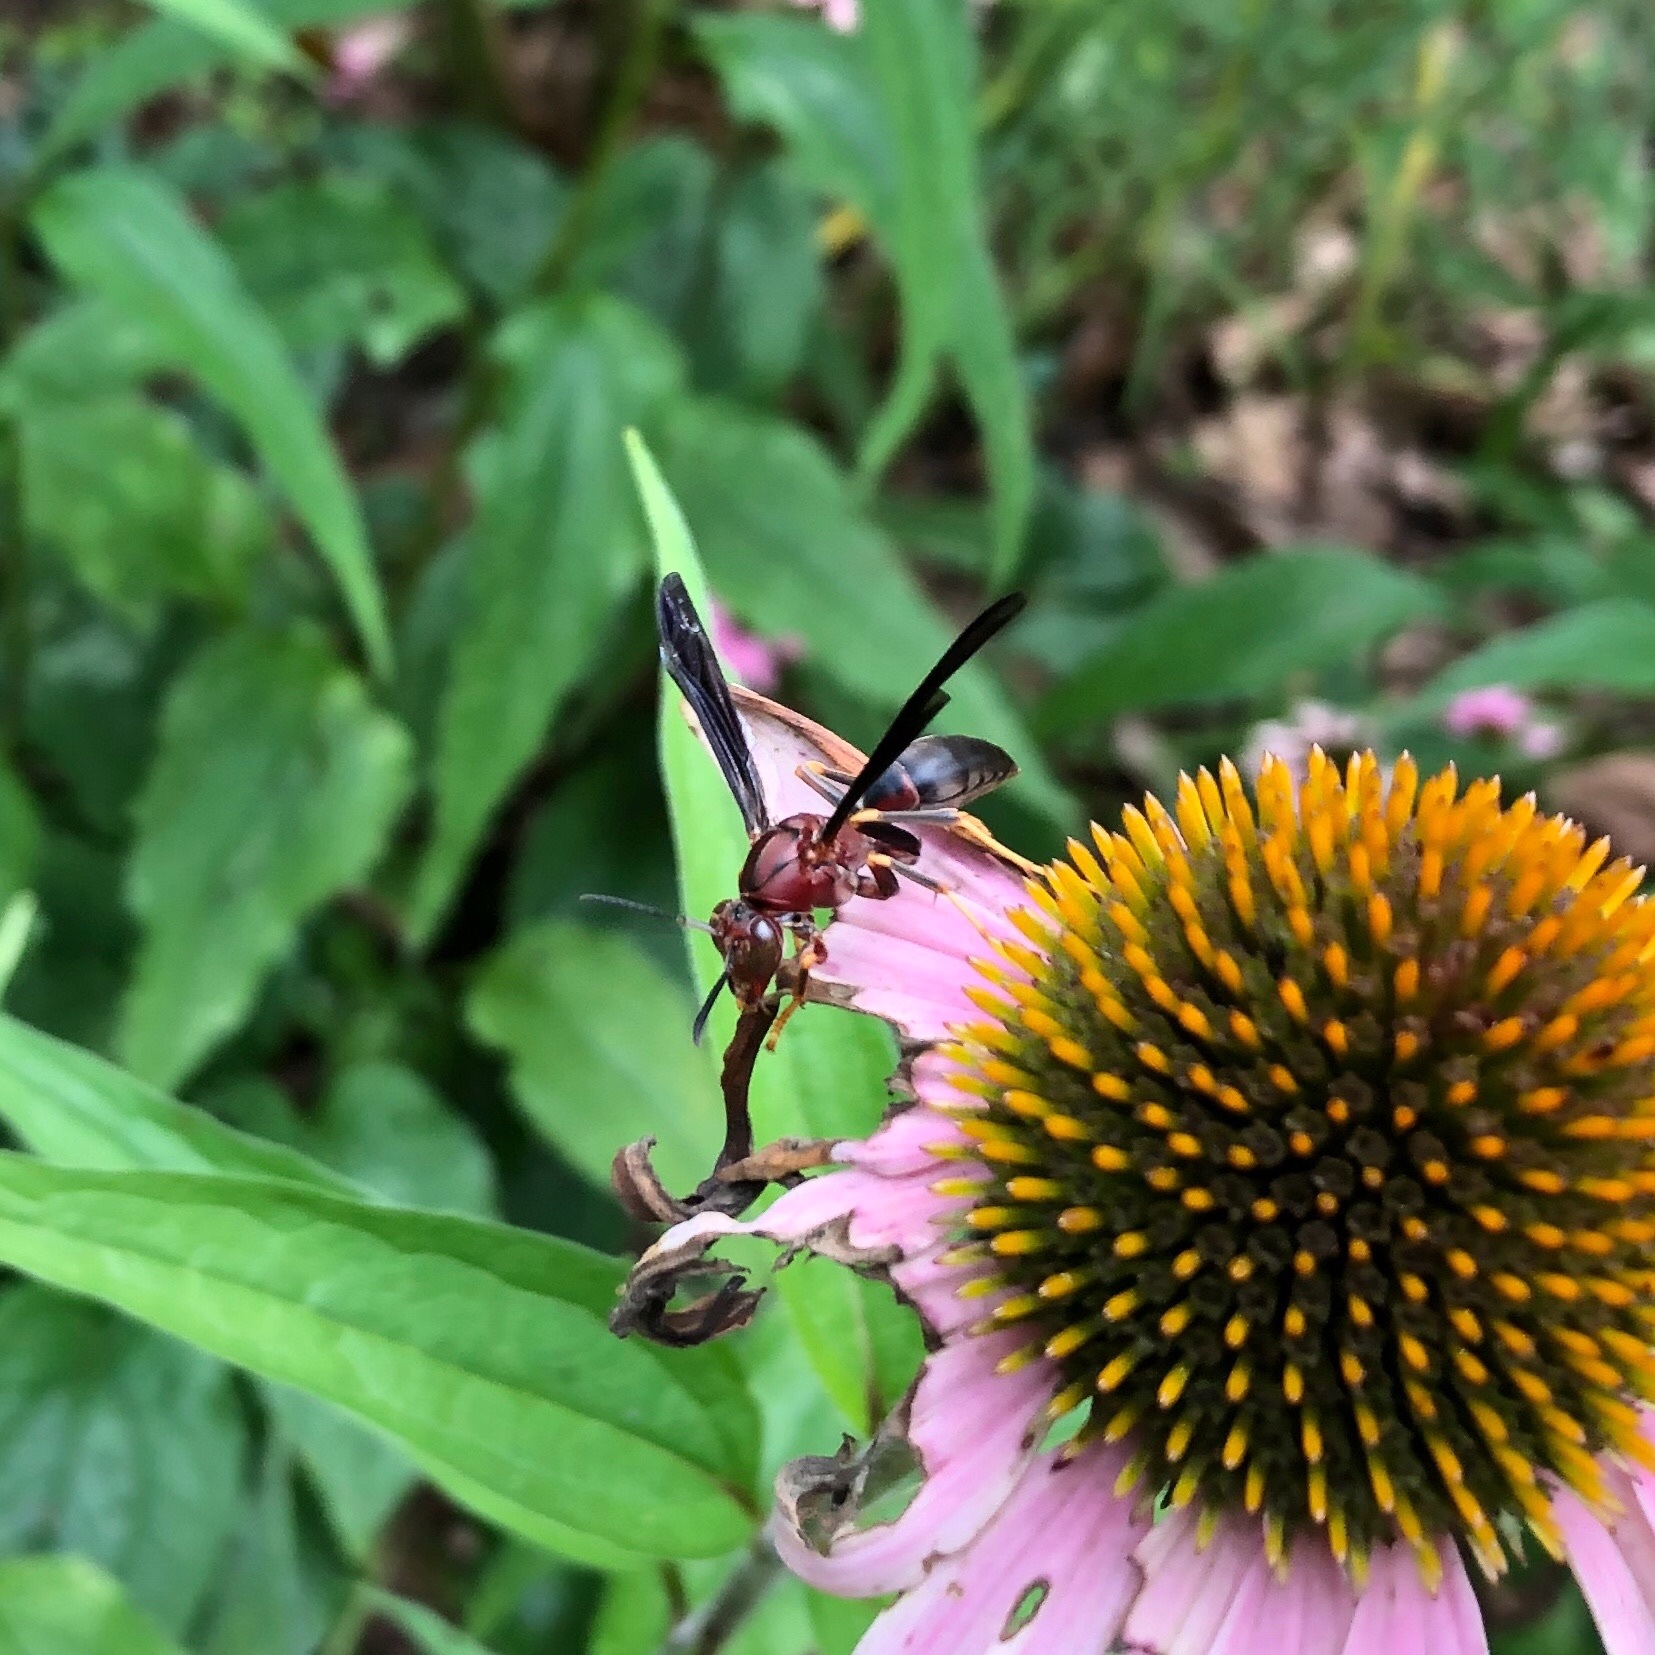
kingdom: Animalia
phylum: Arthropoda
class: Insecta
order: Hymenoptera
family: Eumenidae
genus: Polistes
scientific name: Polistes metricus
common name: Metric paper wasp
